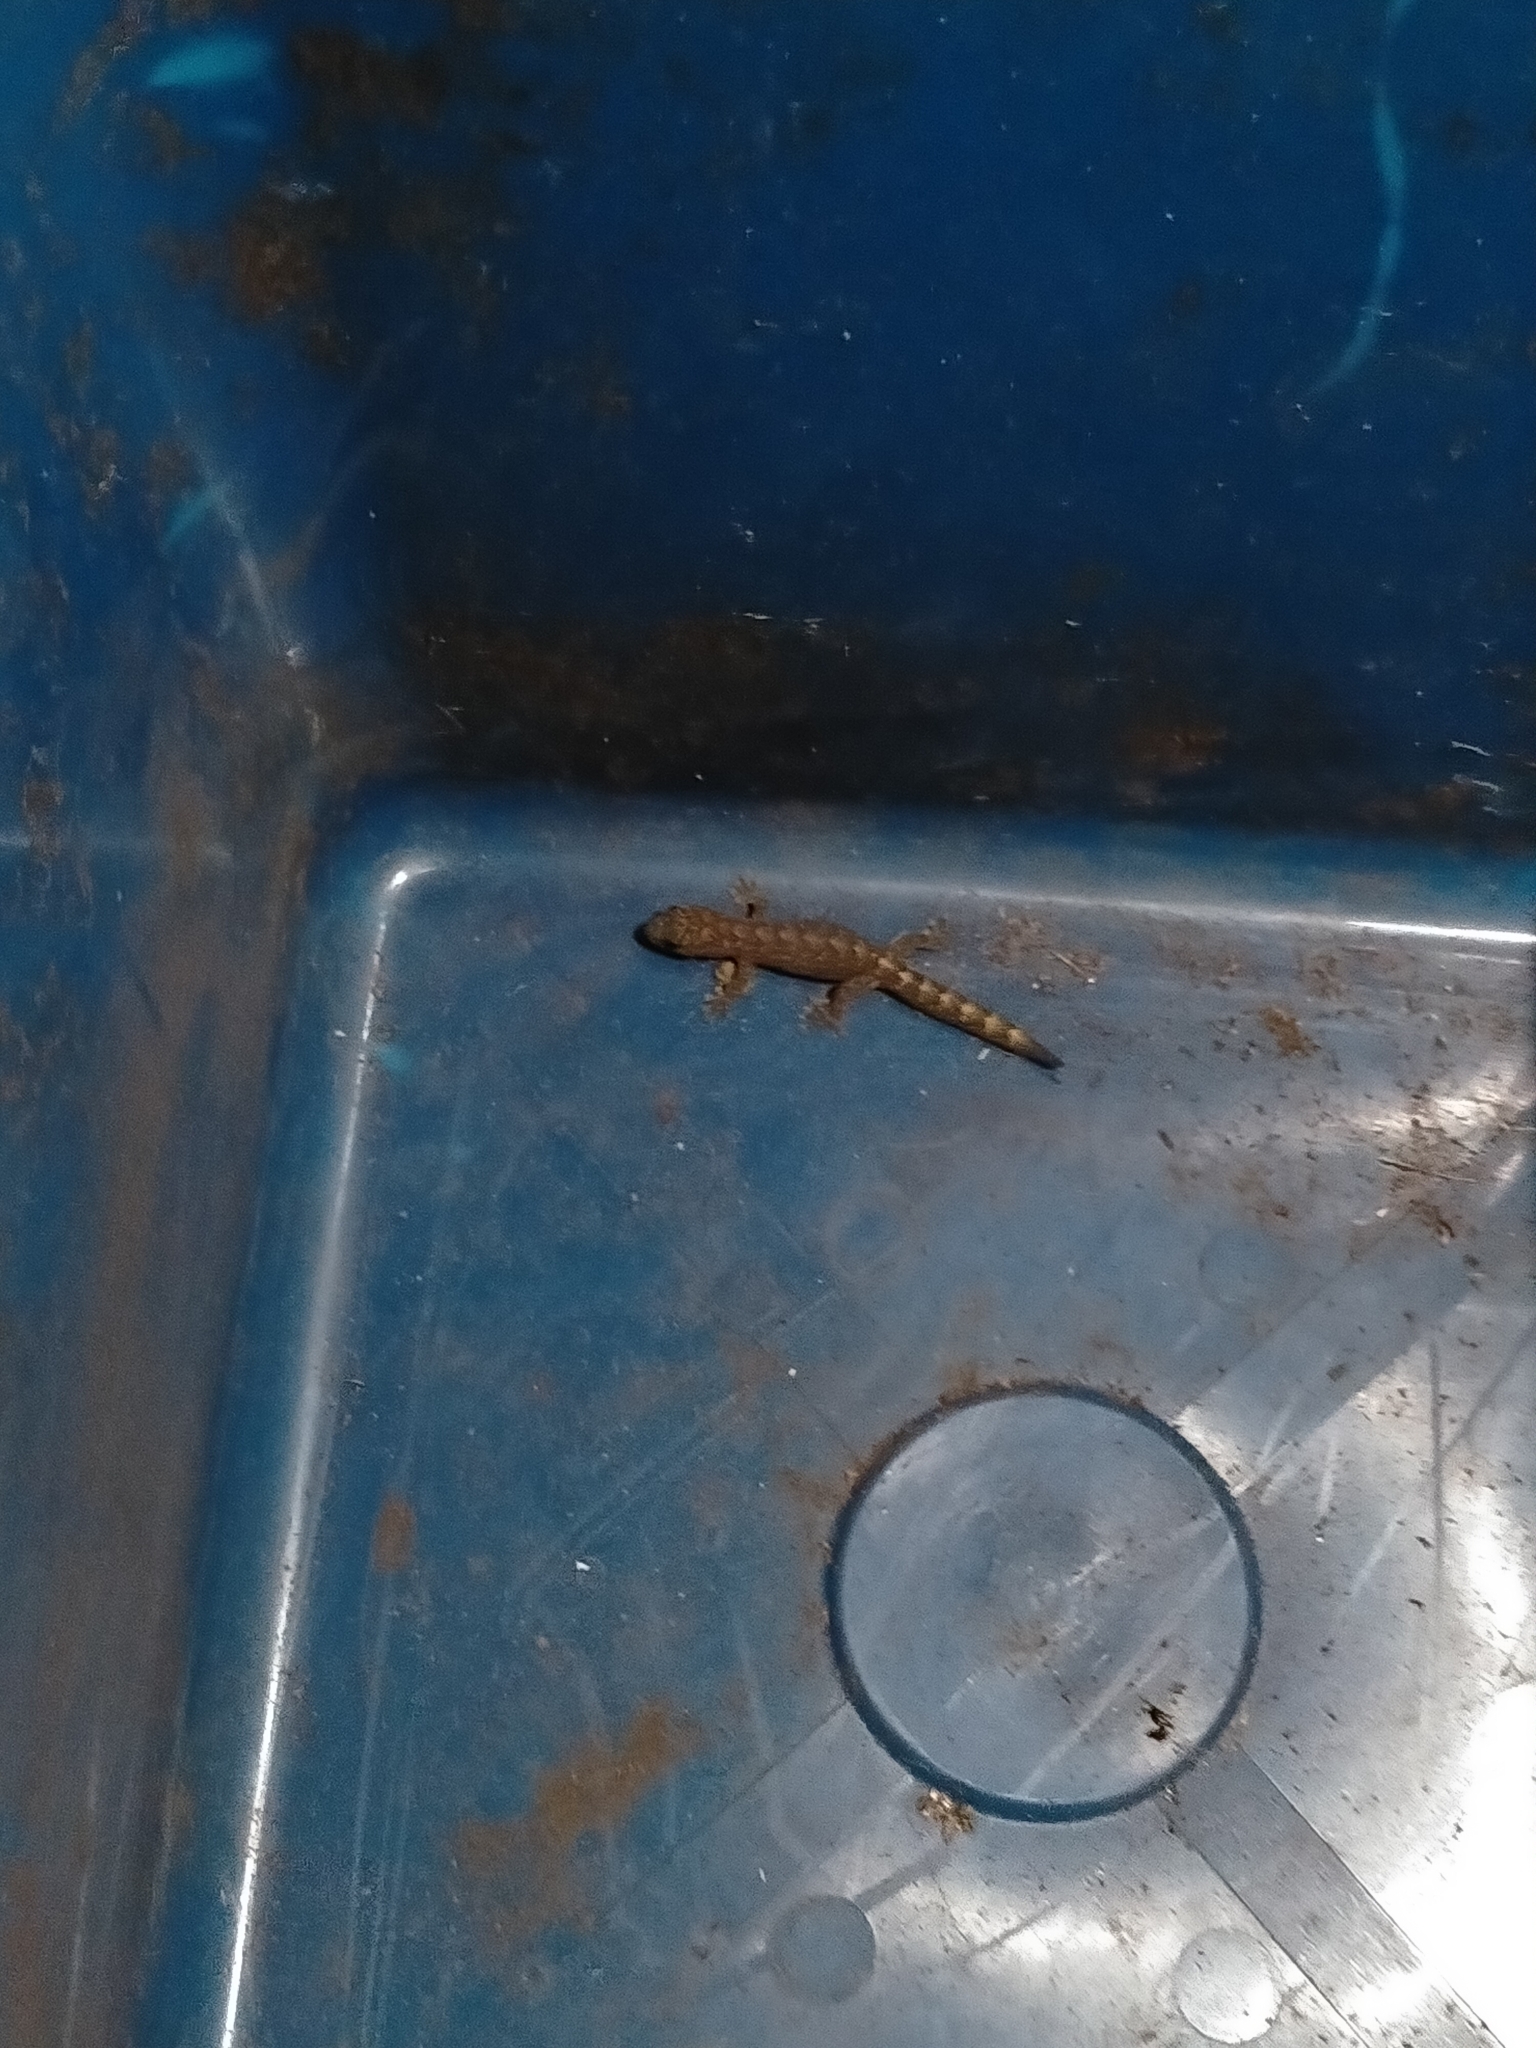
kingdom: Animalia
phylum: Chordata
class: Squamata
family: Gekkonidae
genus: Christinus
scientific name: Christinus marmoratus
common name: Marbled gecko
